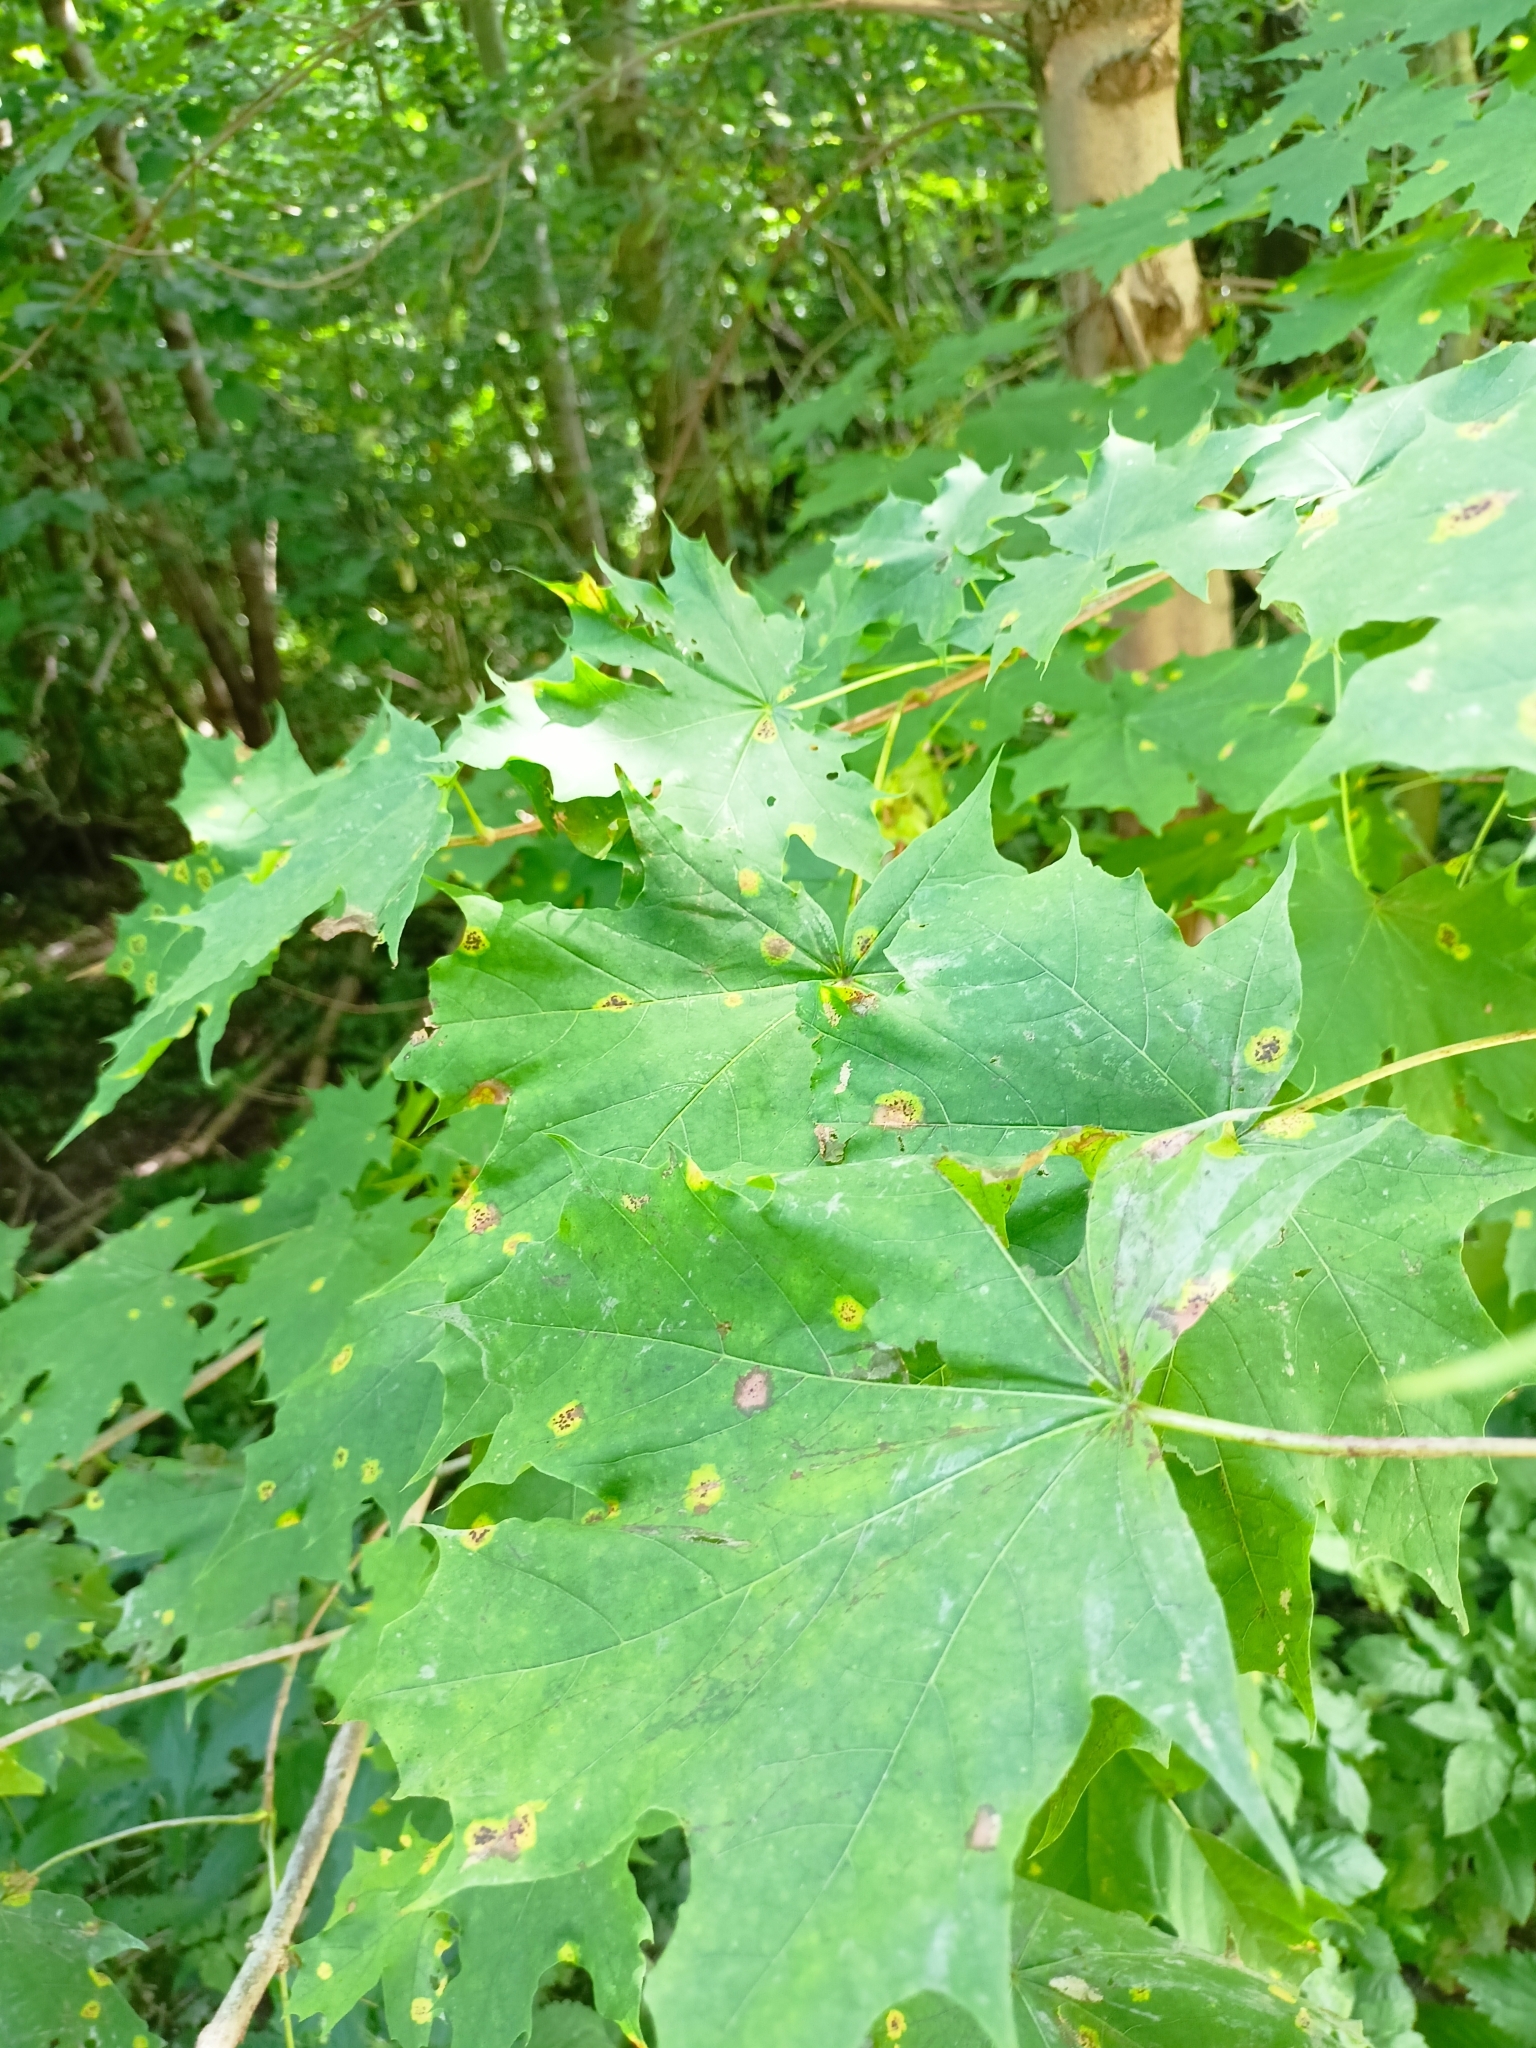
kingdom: Plantae
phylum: Tracheophyta
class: Magnoliopsida
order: Sapindales
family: Sapindaceae
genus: Acer
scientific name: Acer platanoides
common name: Norway maple
